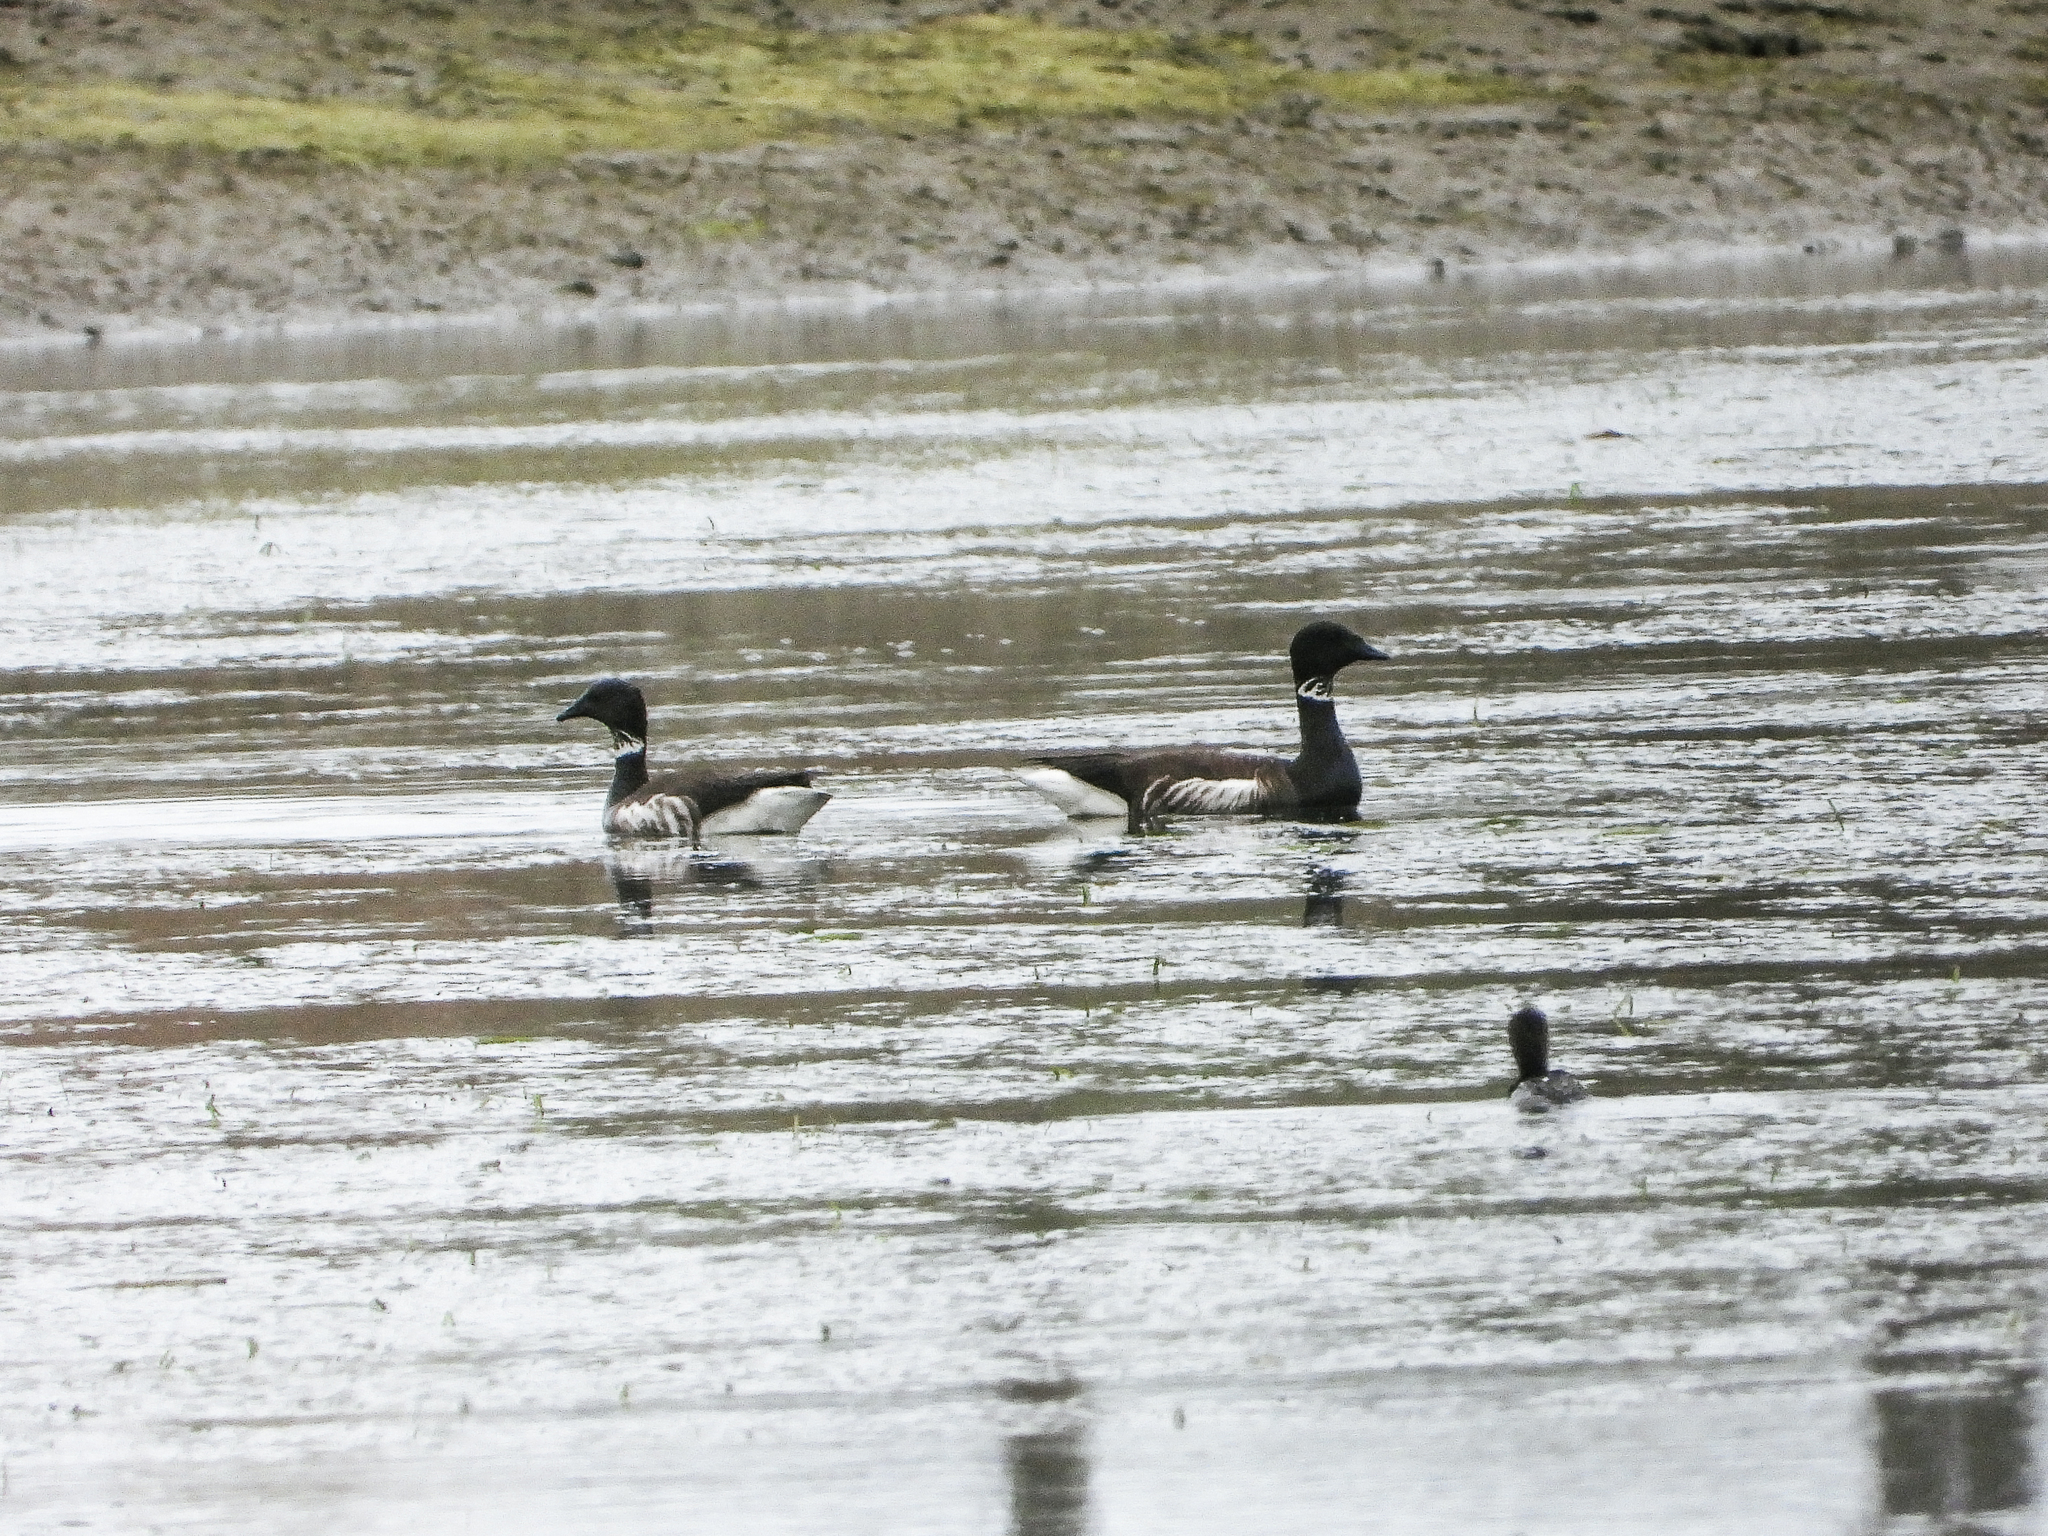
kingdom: Animalia
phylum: Chordata
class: Aves
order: Anseriformes
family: Anatidae
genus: Branta
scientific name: Branta bernicla
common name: Brant goose
